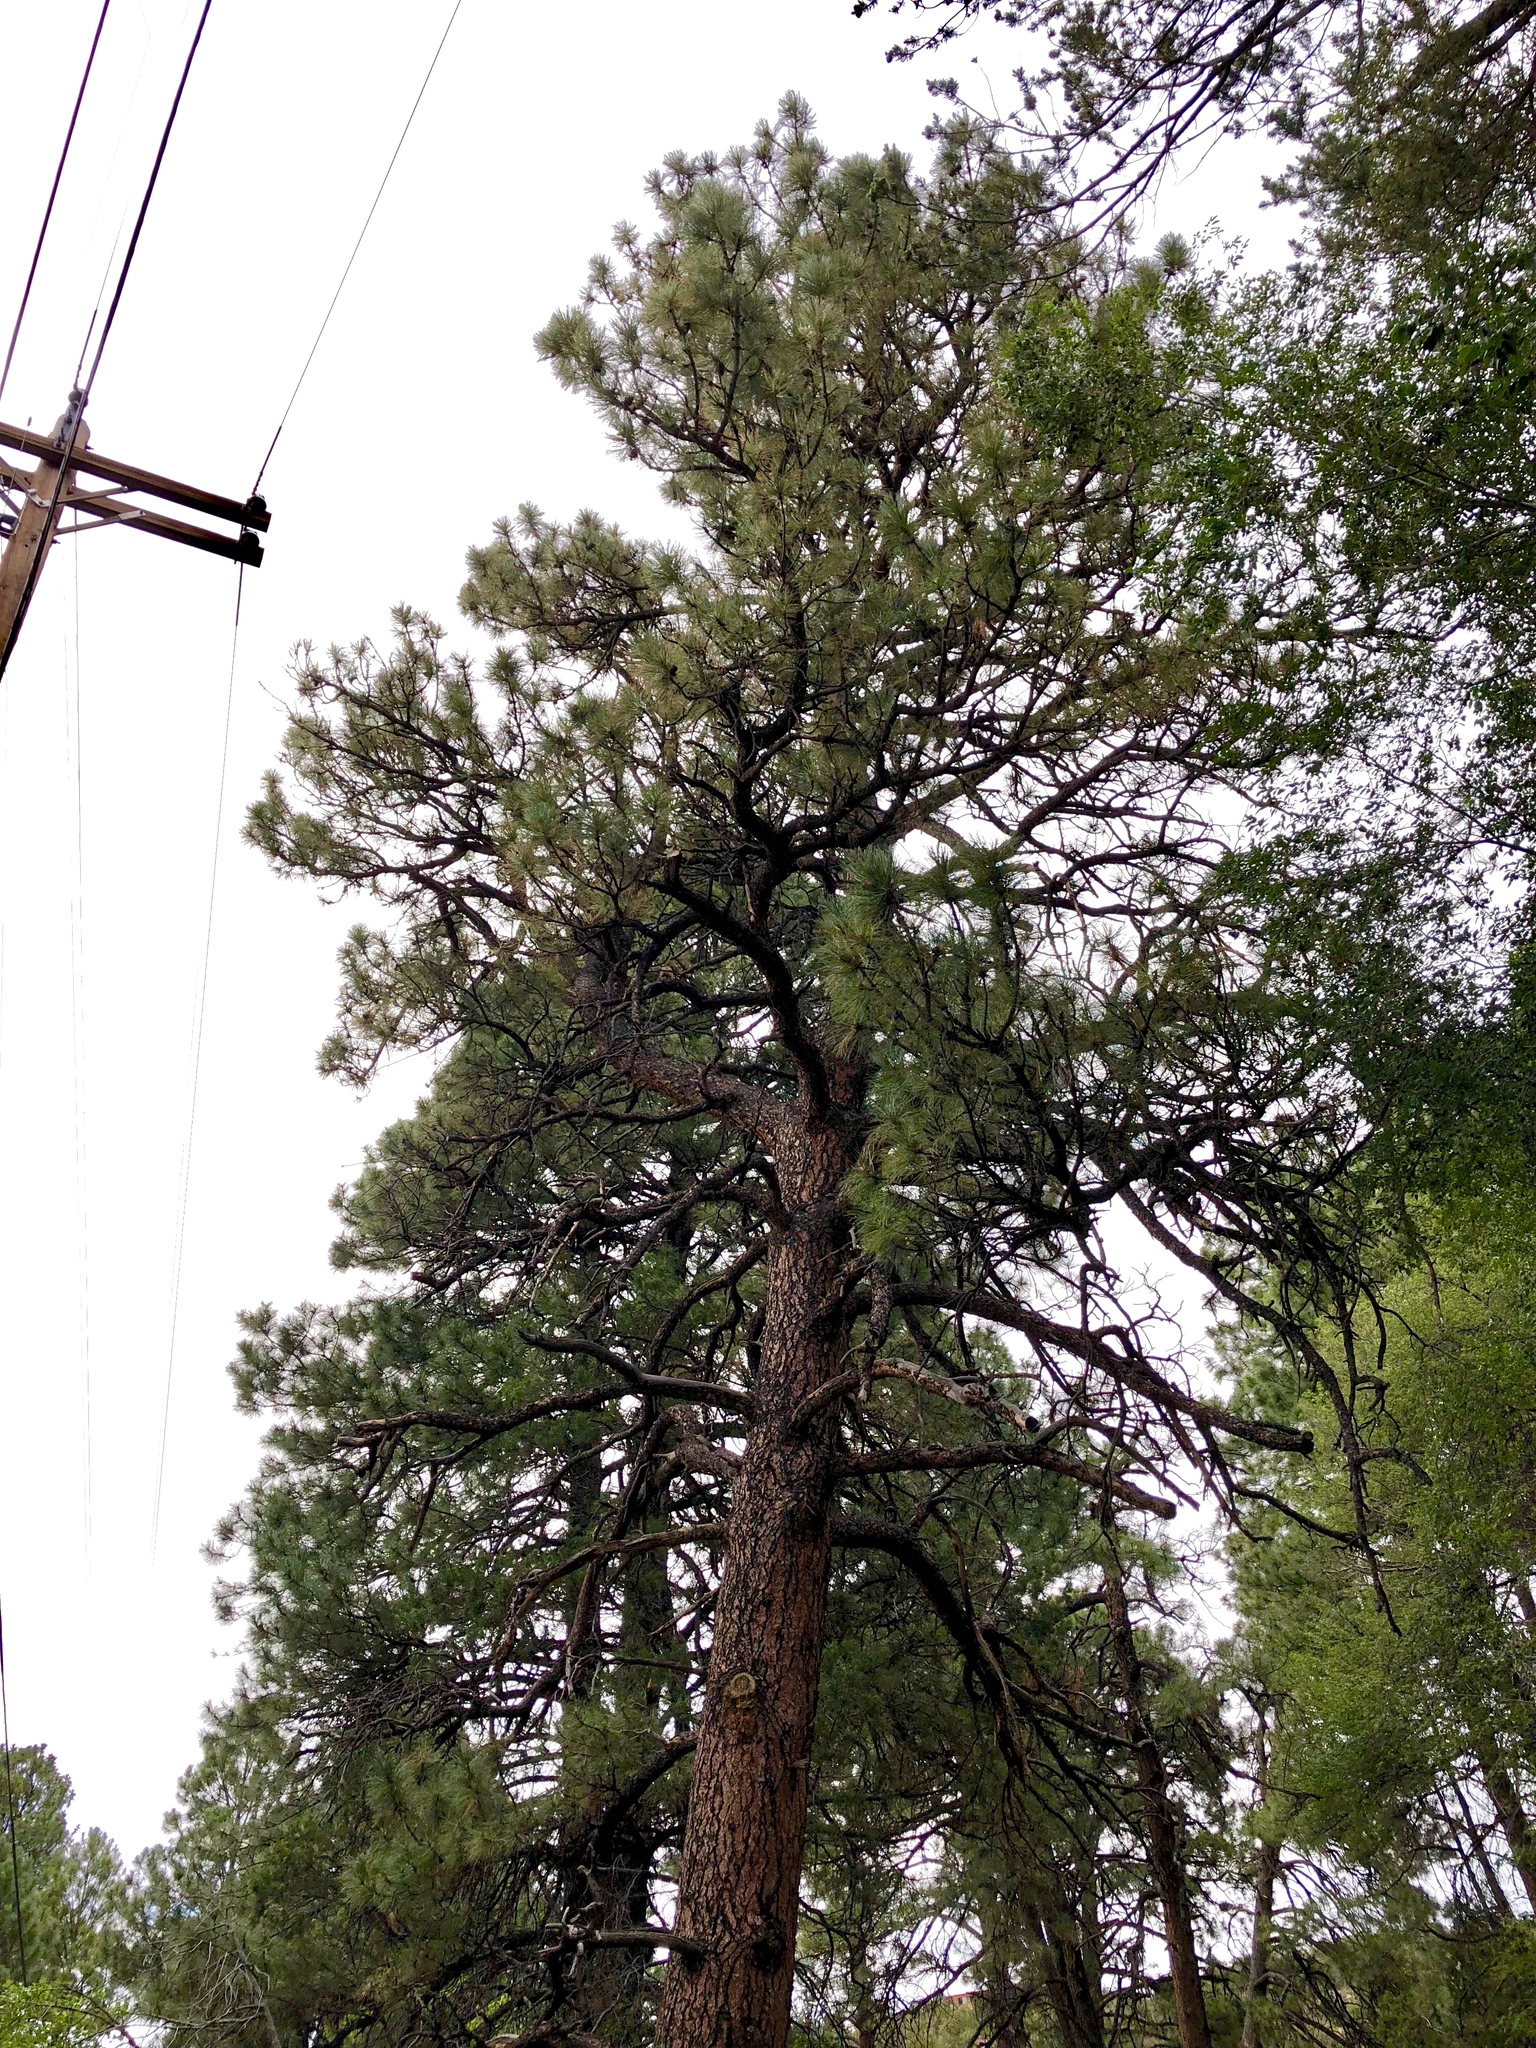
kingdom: Plantae
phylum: Tracheophyta
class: Pinopsida
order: Pinales
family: Pinaceae
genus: Pinus
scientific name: Pinus ponderosa
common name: Western yellow-pine
